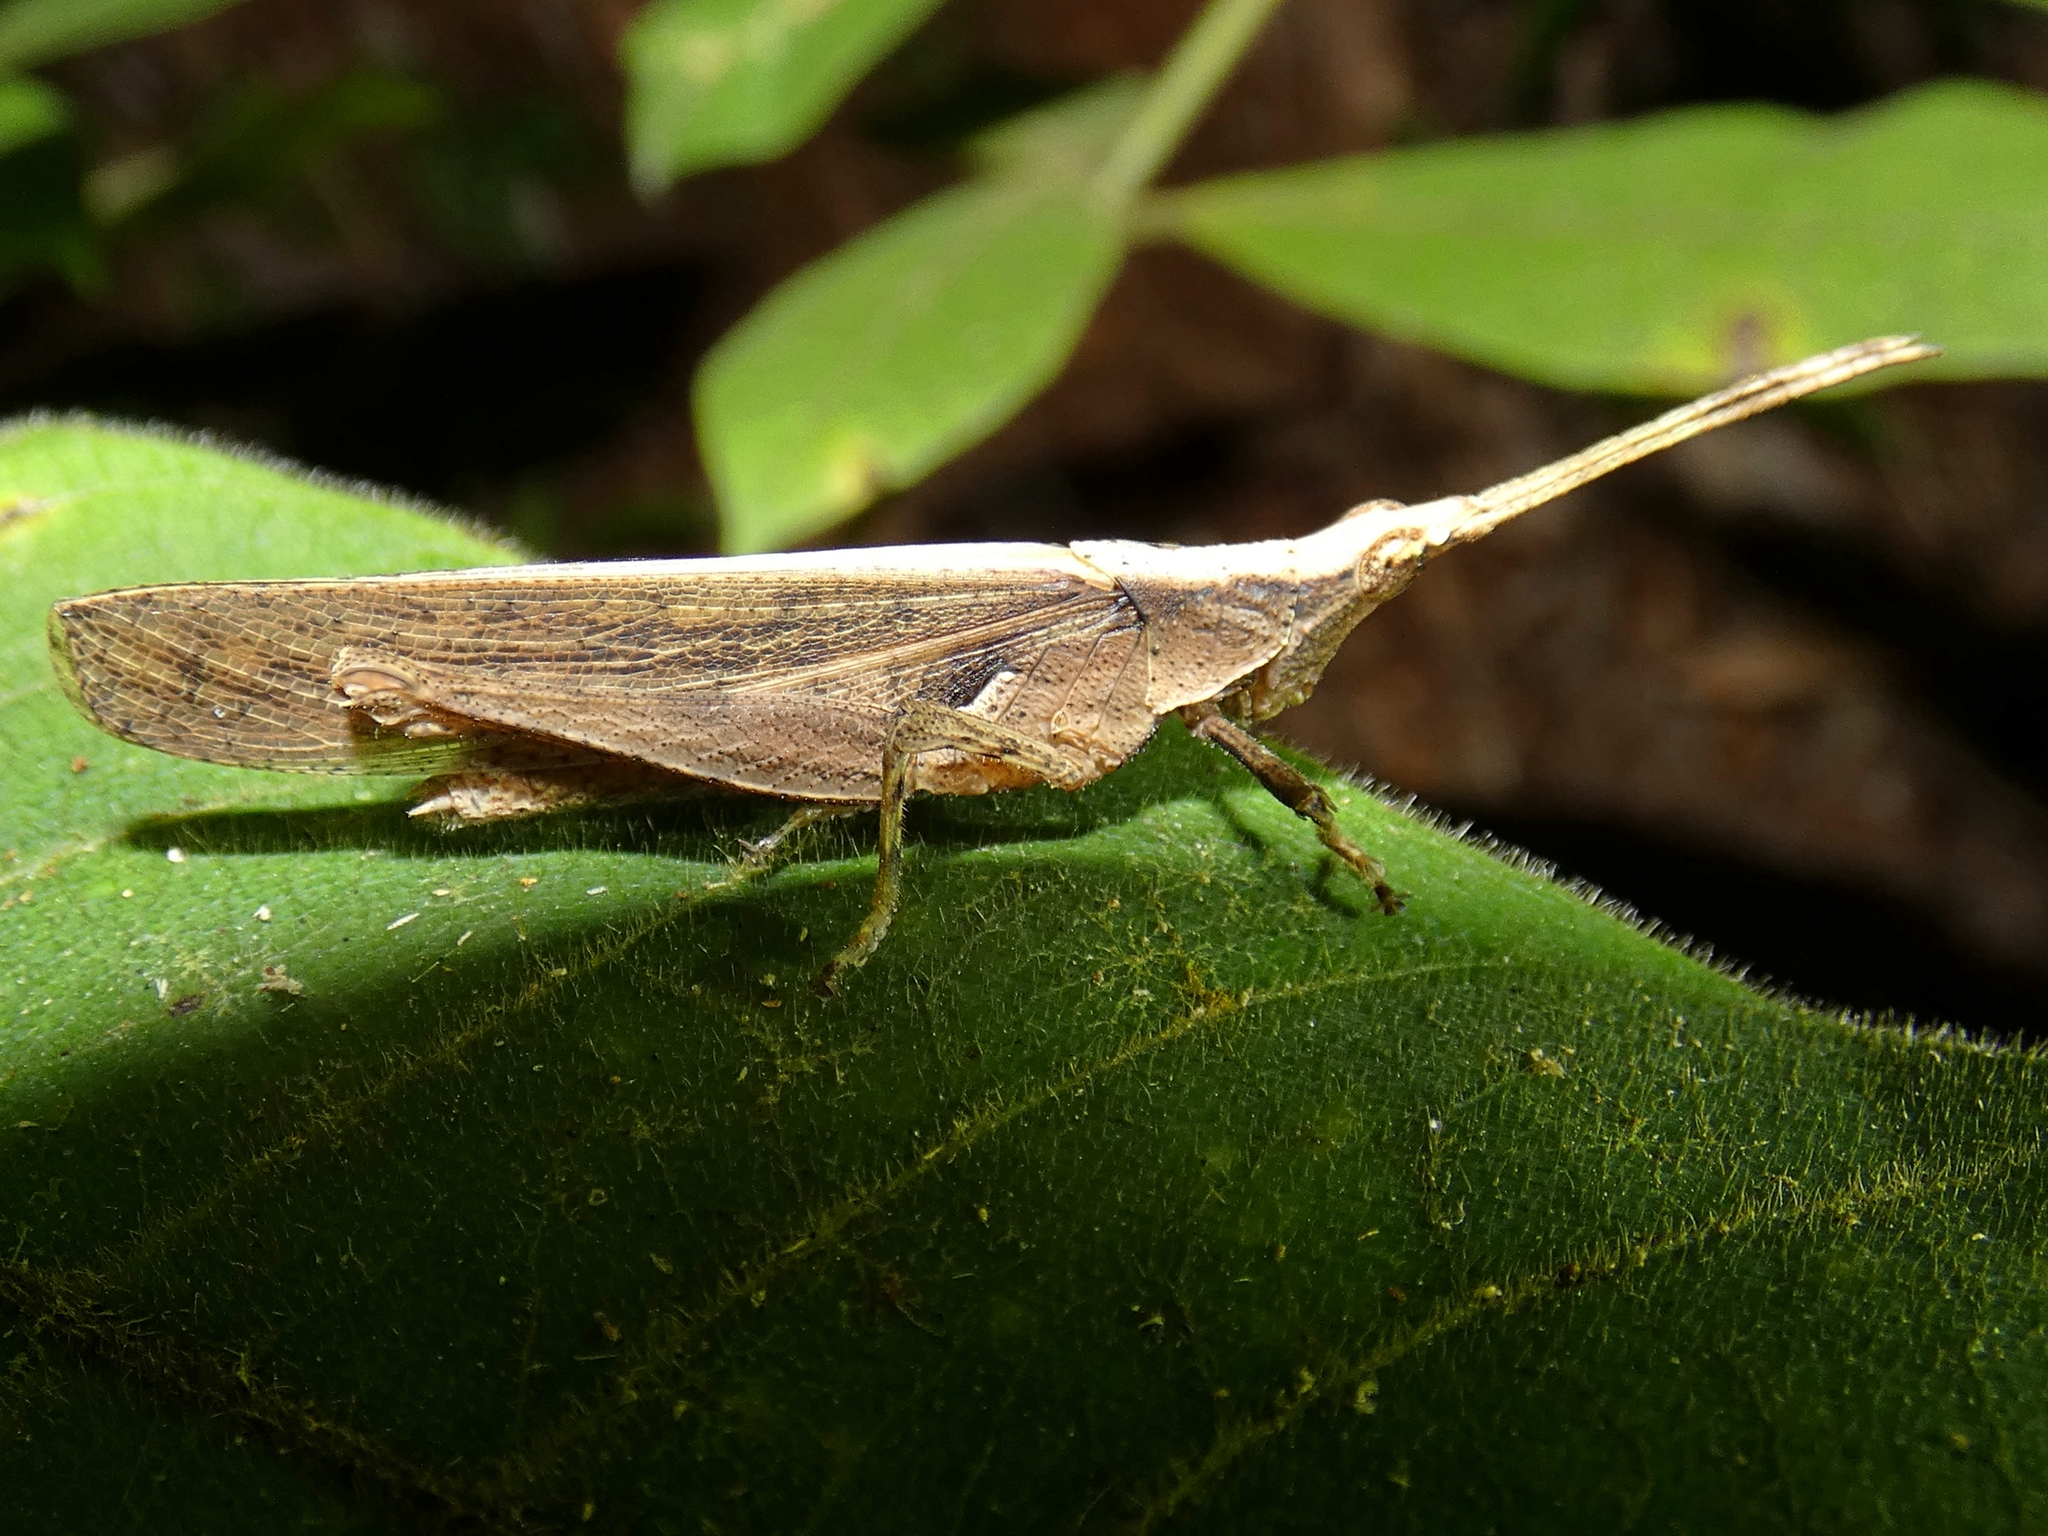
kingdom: Animalia
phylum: Arthropoda
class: Insecta
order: Orthoptera
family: Pyrgomorphidae
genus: Desmoptera
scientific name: Desmoptera truncatipennis
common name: Large forest pyrgomorph
